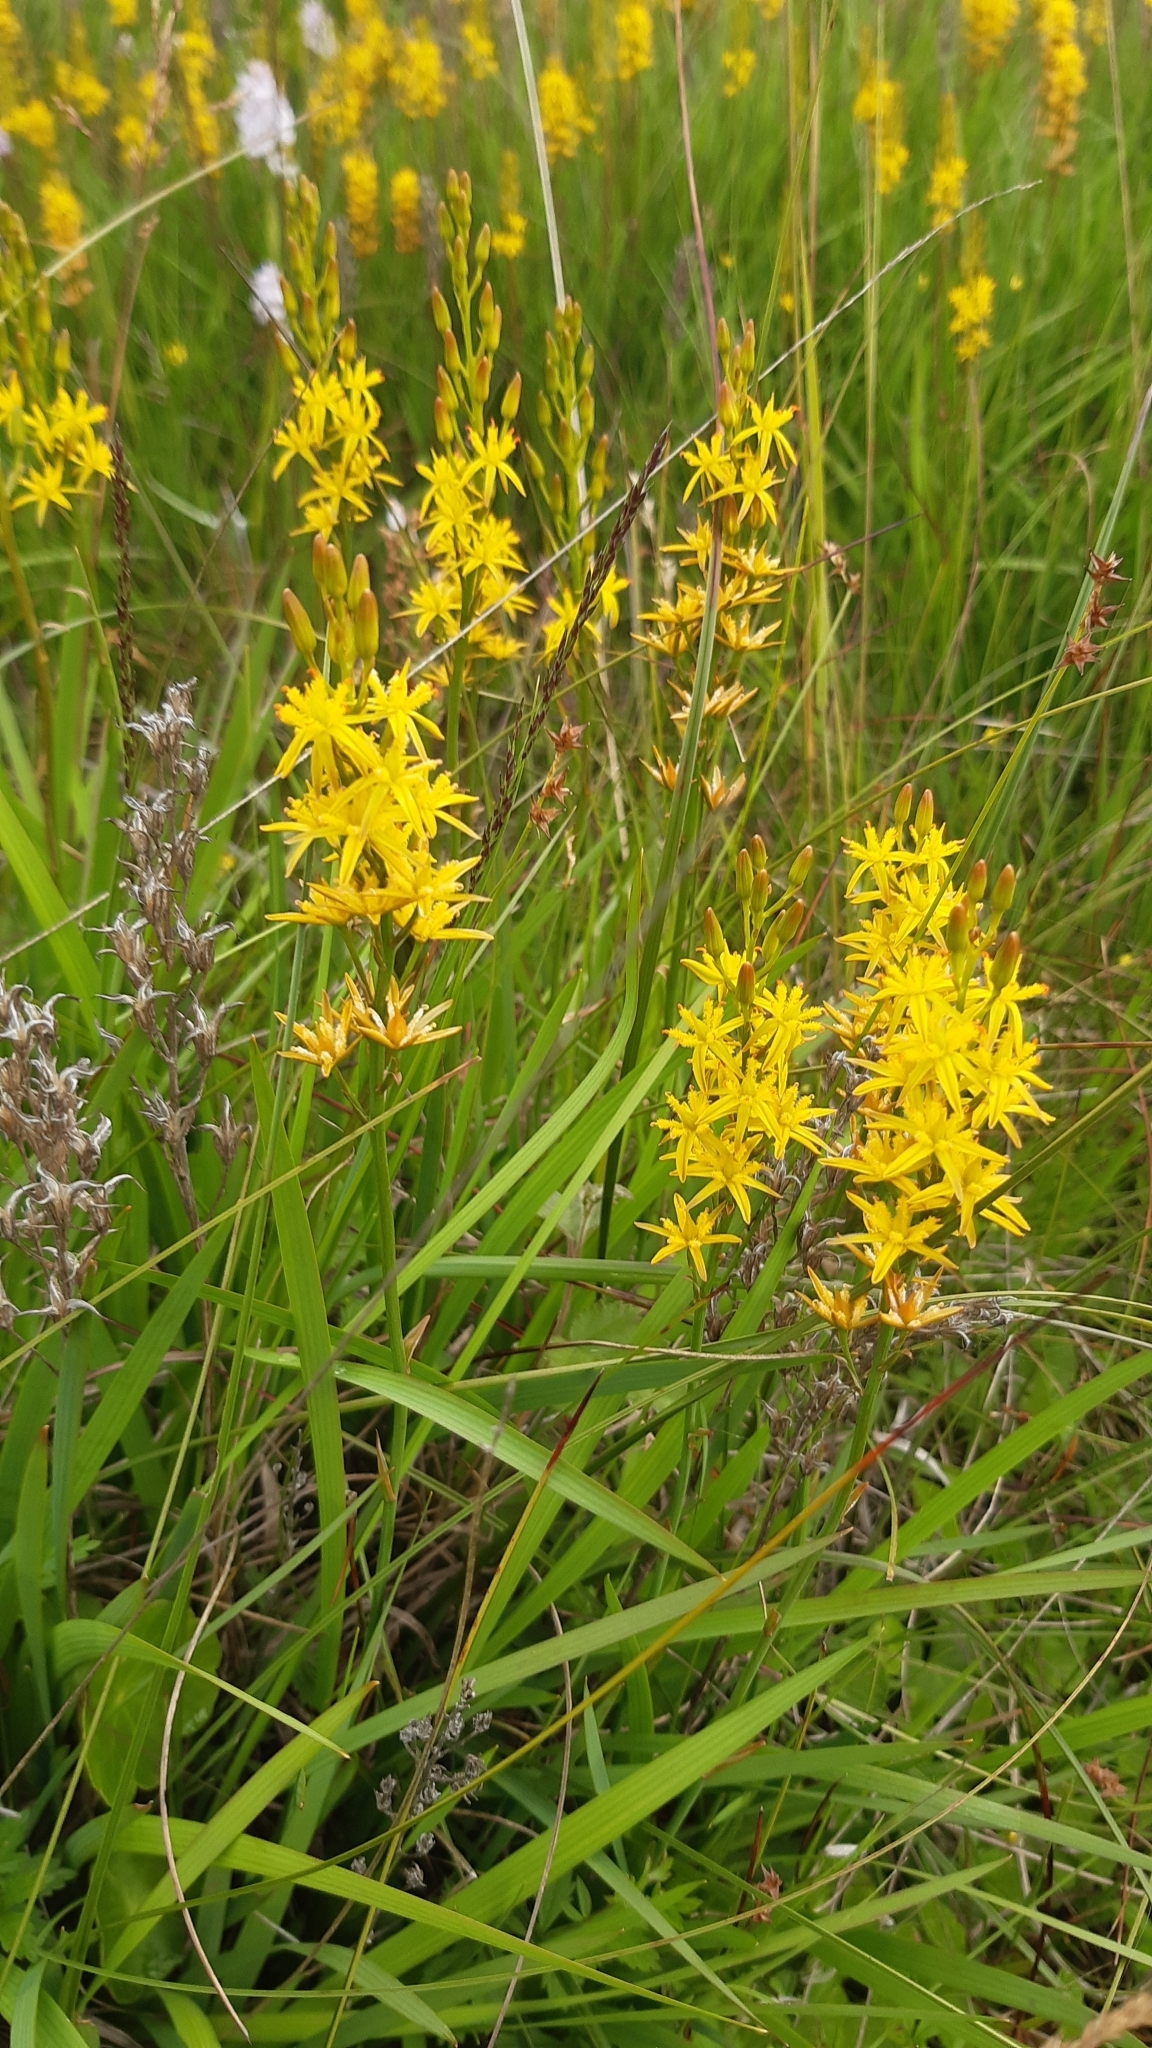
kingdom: Plantae
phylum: Tracheophyta
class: Liliopsida
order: Dioscoreales
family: Nartheciaceae
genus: Narthecium
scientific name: Narthecium ossifragum
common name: Bog asphodel
